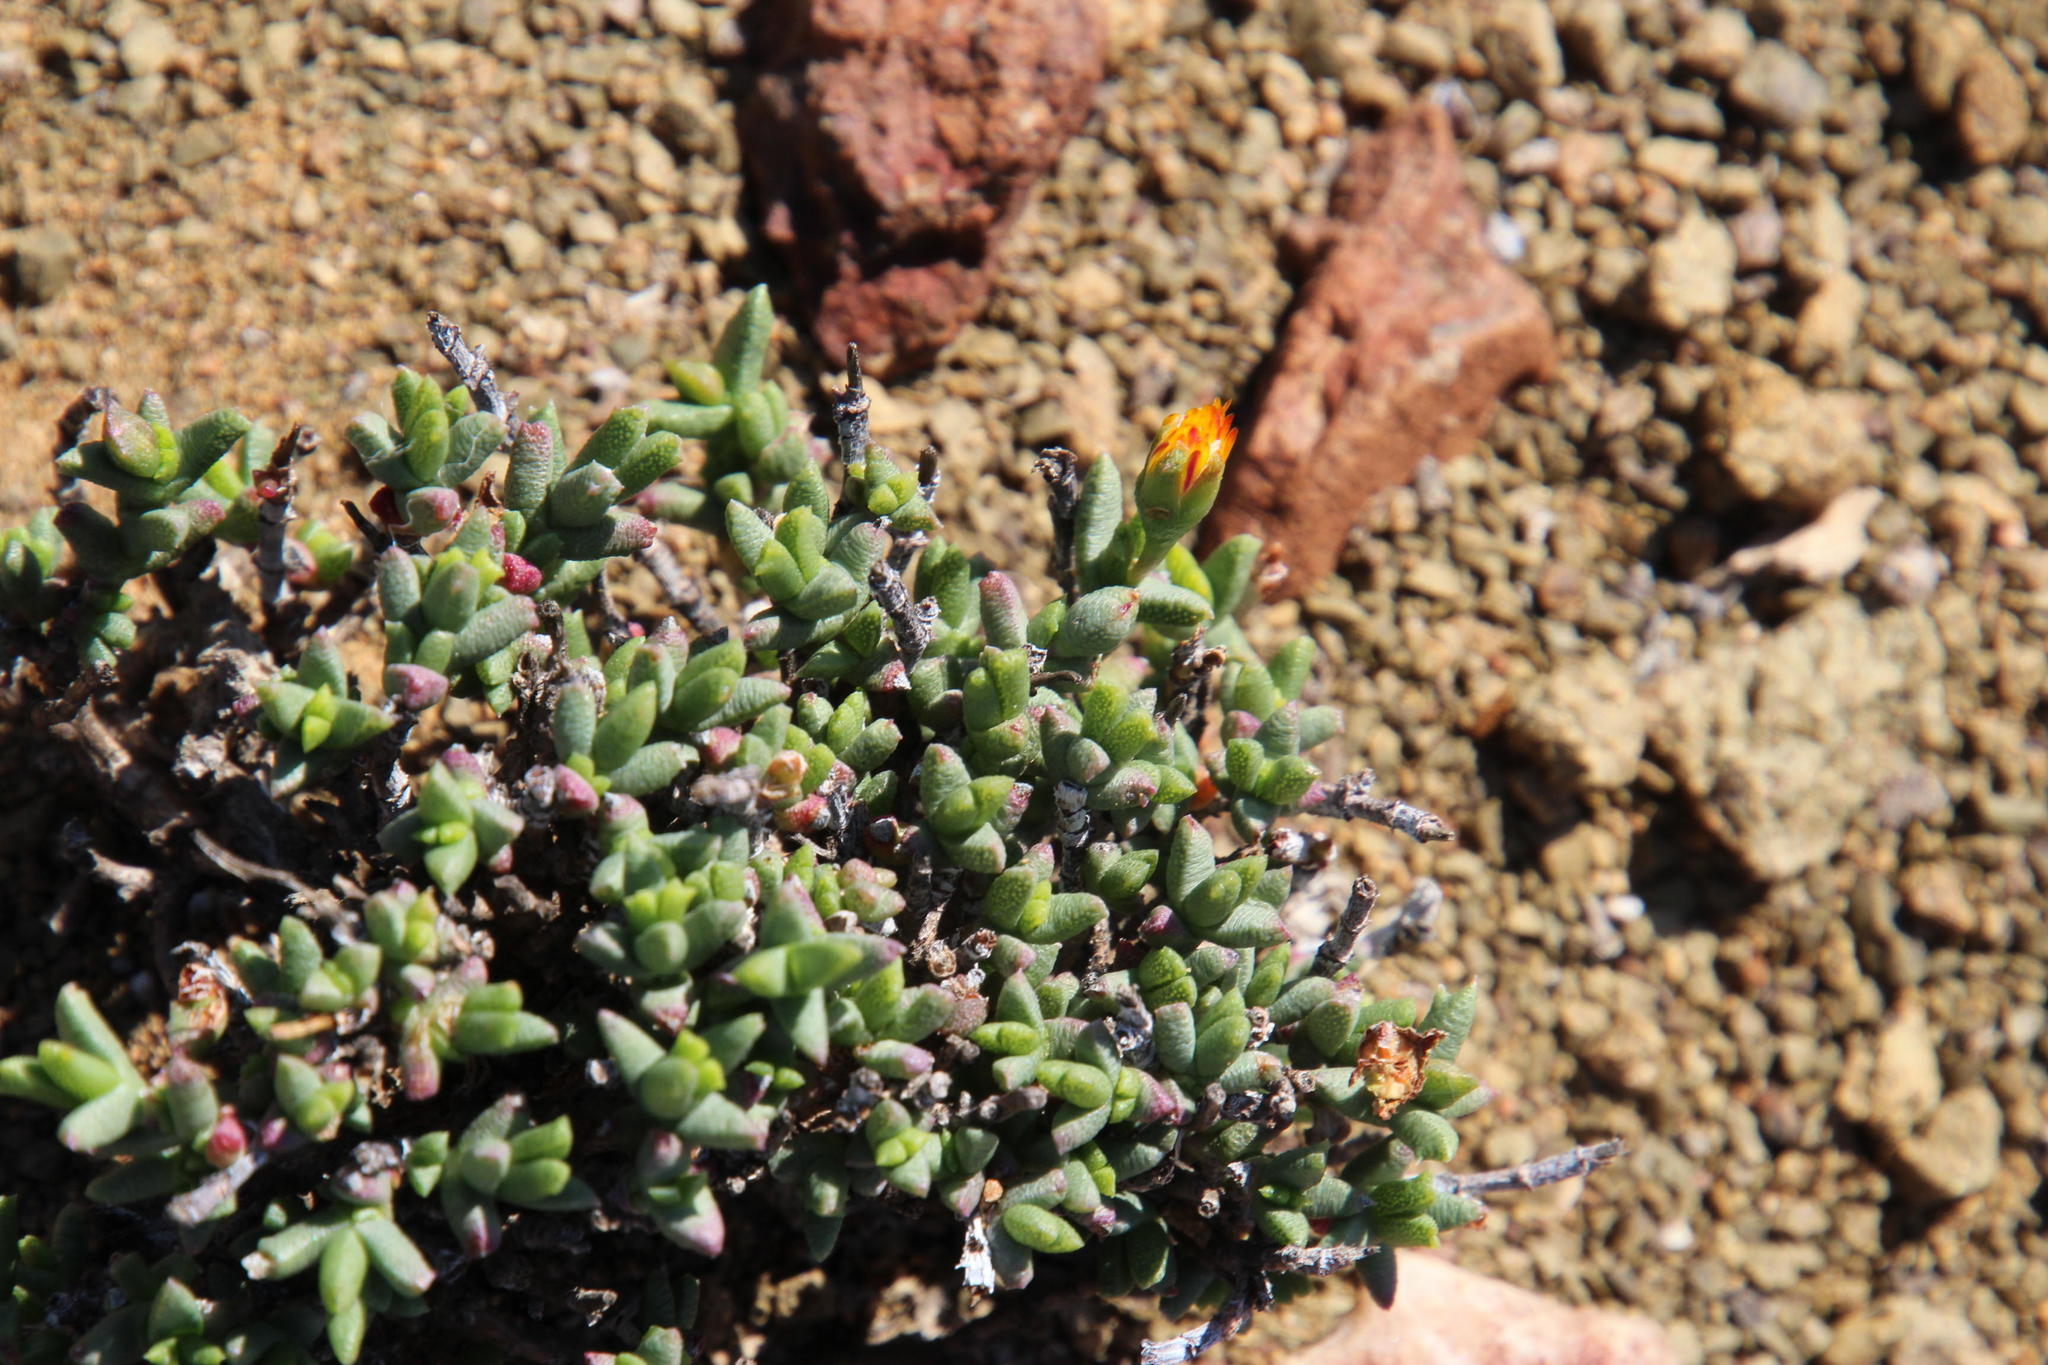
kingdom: Plantae
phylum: Tracheophyta
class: Magnoliopsida
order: Caryophyllales
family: Aizoaceae
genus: Dracophilus
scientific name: Dracophilus Chasmatophyllum nelii
